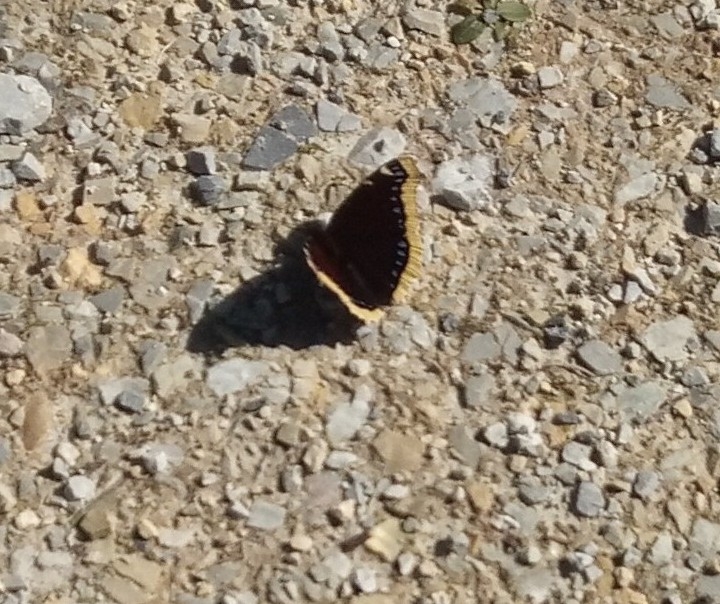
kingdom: Animalia
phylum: Arthropoda
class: Insecta
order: Lepidoptera
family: Nymphalidae
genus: Nymphalis
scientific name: Nymphalis antiopa
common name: Camberwell beauty
